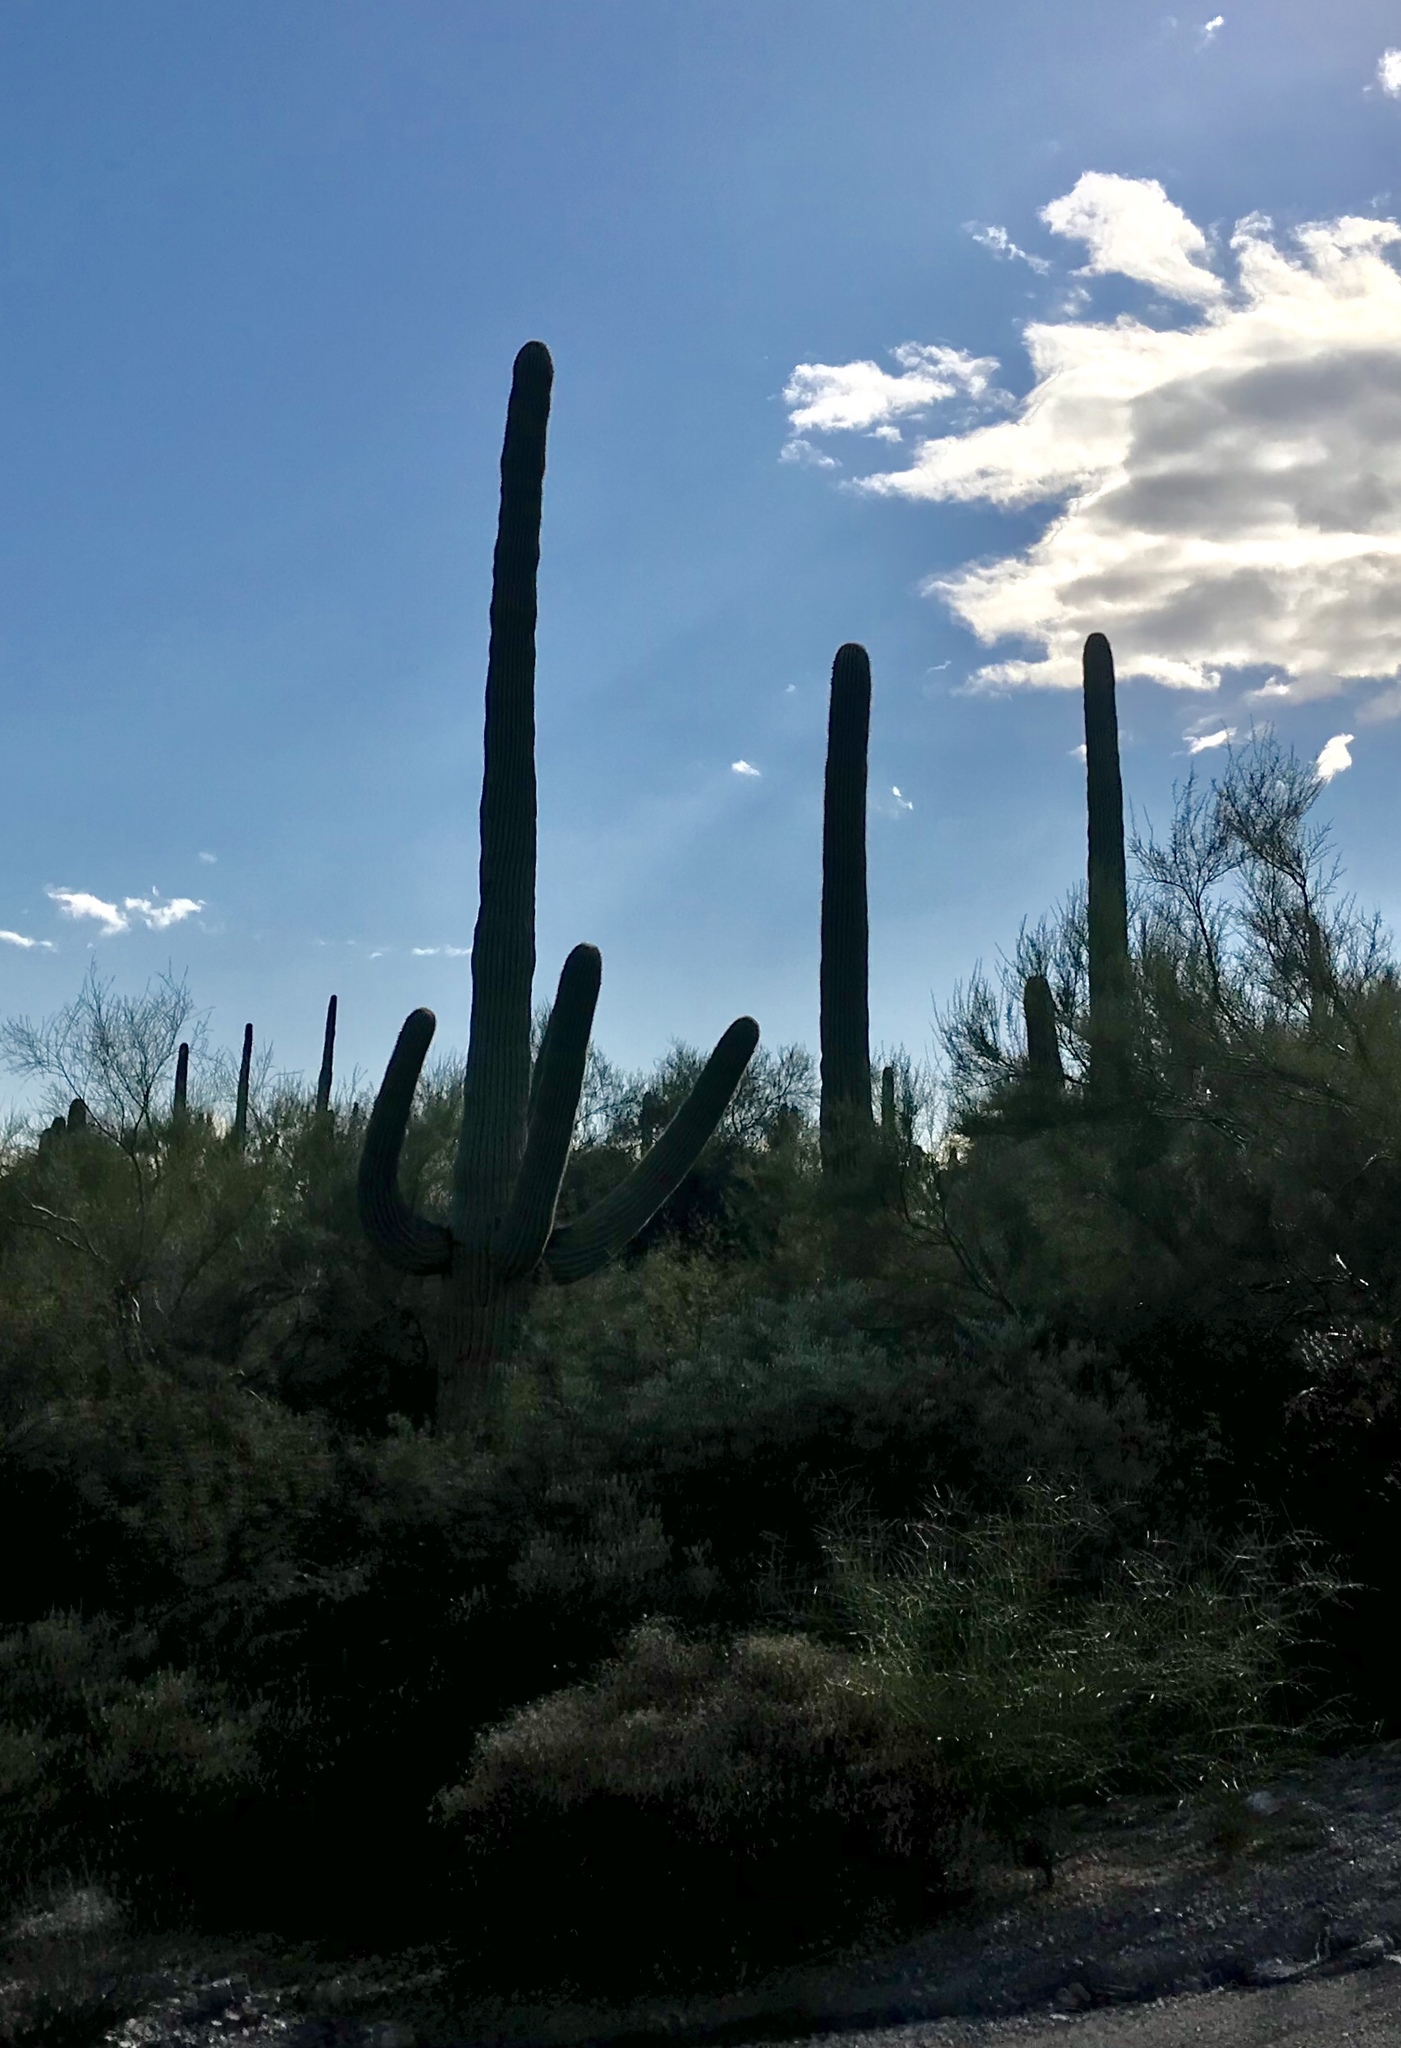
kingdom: Plantae
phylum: Tracheophyta
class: Magnoliopsida
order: Caryophyllales
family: Cactaceae
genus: Carnegiea
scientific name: Carnegiea gigantea
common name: Saguaro
